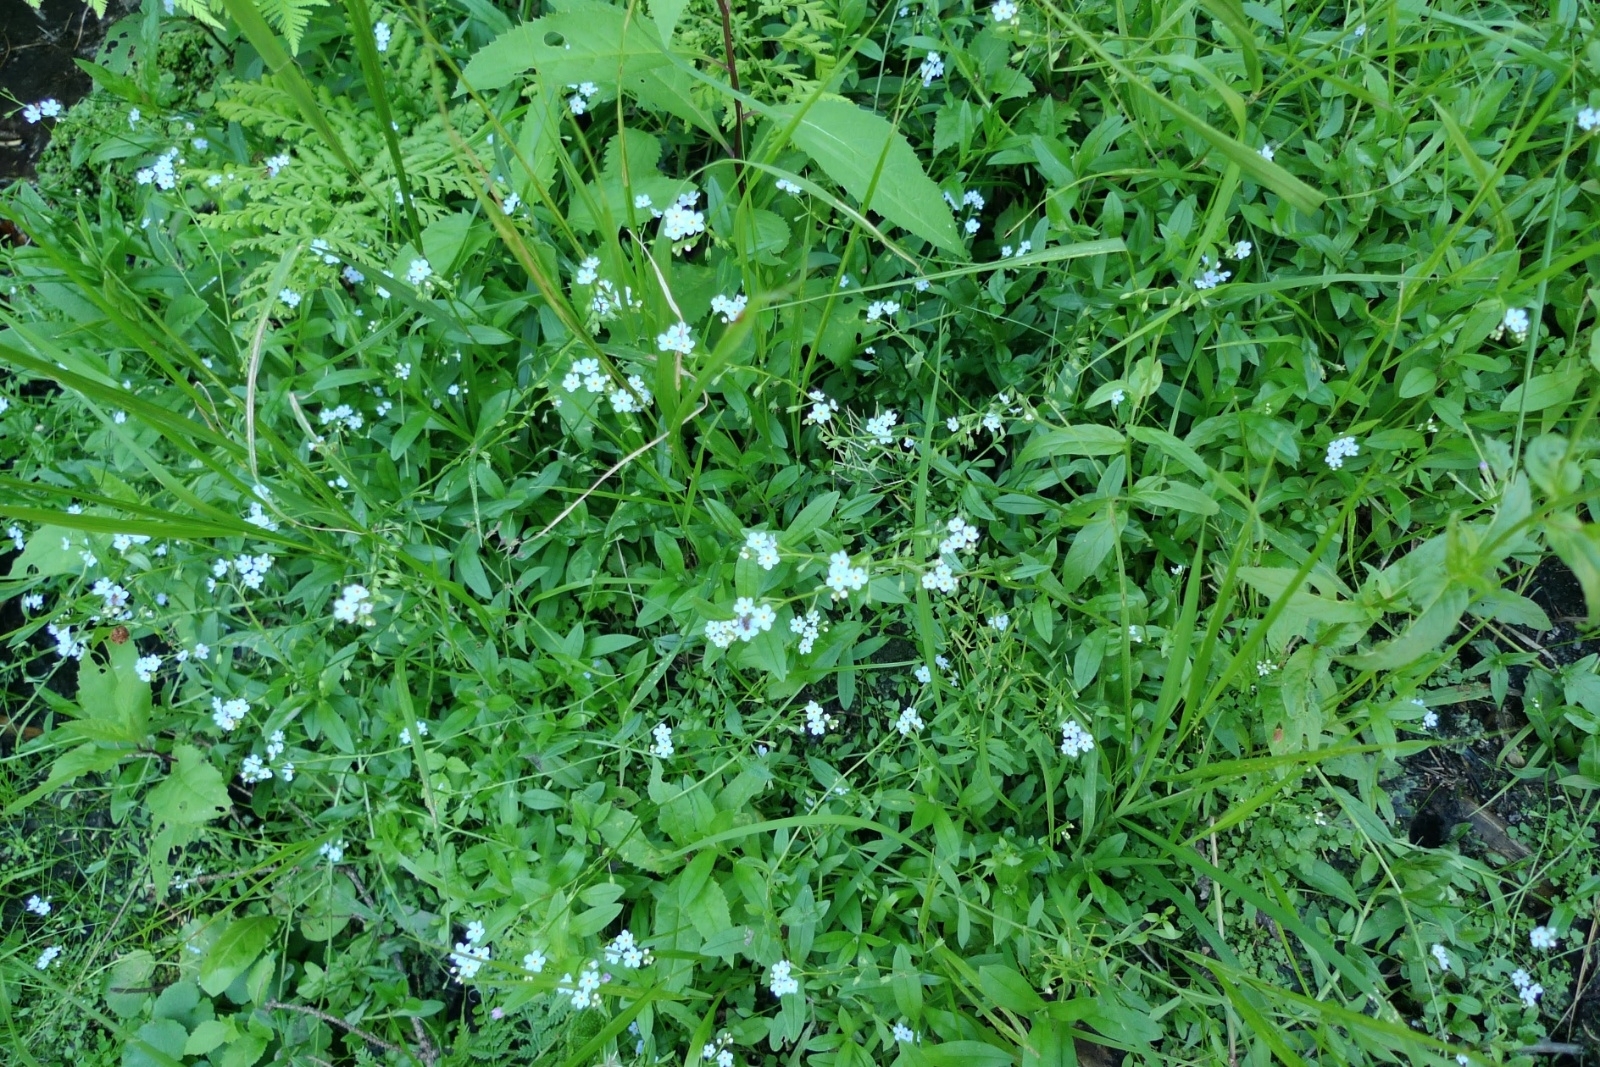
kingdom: Plantae
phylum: Tracheophyta
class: Magnoliopsida
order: Boraginales
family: Boraginaceae
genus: Myosotis
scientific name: Myosotis scorpioides
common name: Water forget-me-not
